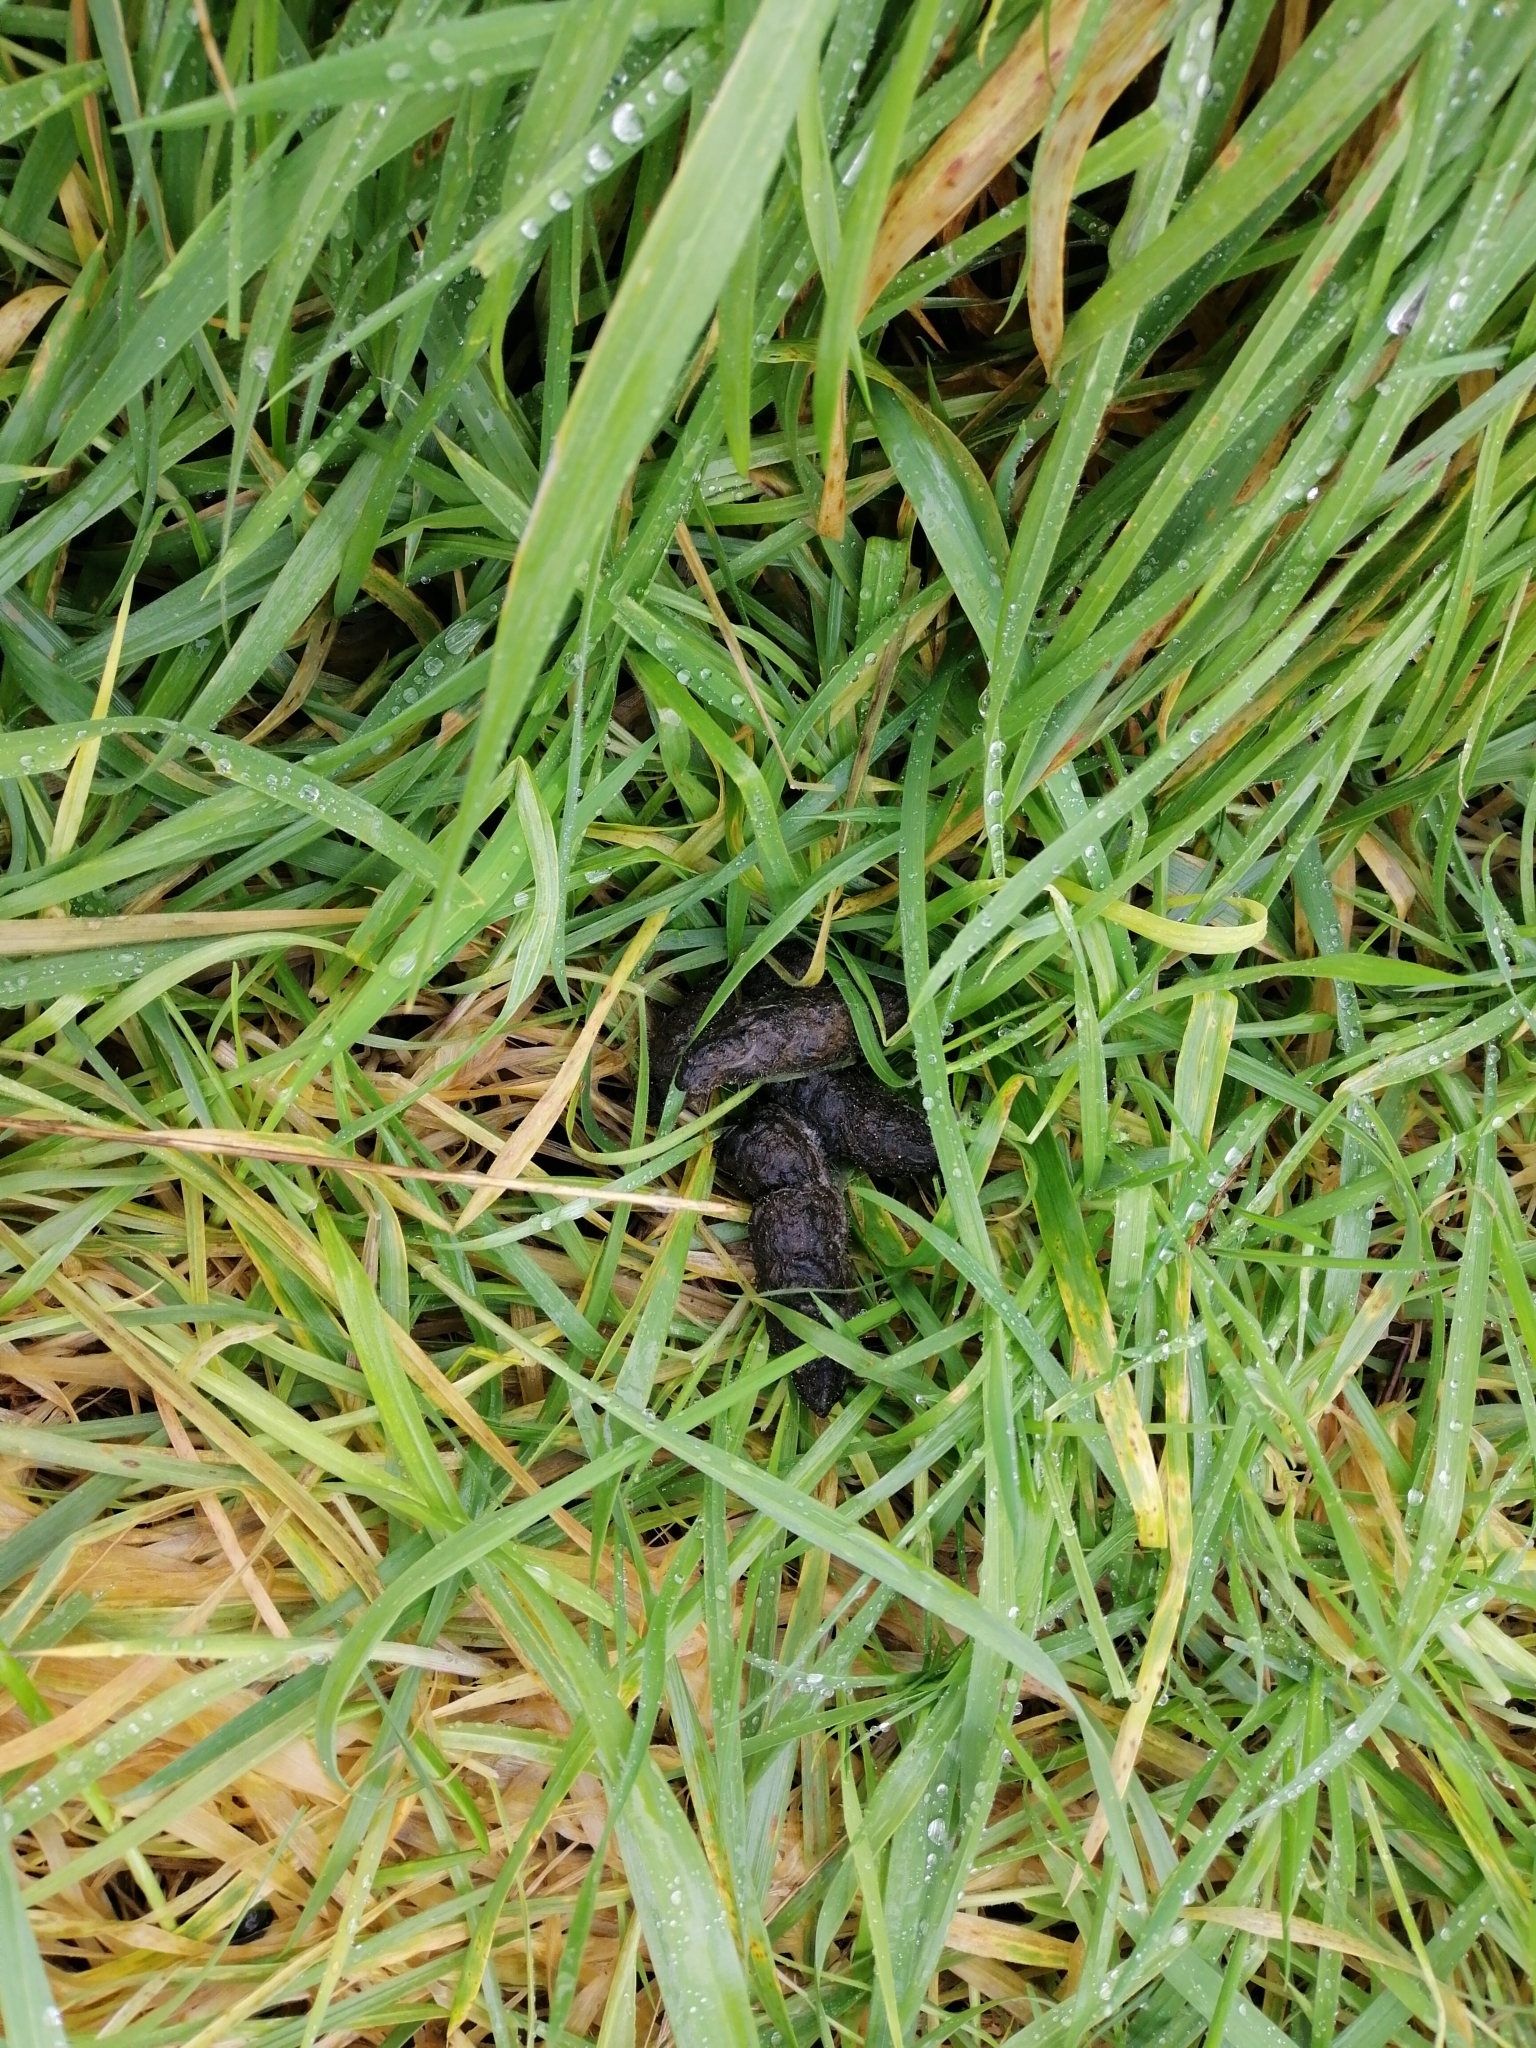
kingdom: Animalia
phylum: Chordata
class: Mammalia
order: Carnivora
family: Felidae
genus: Felis
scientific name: Felis catus
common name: Domestic cat
